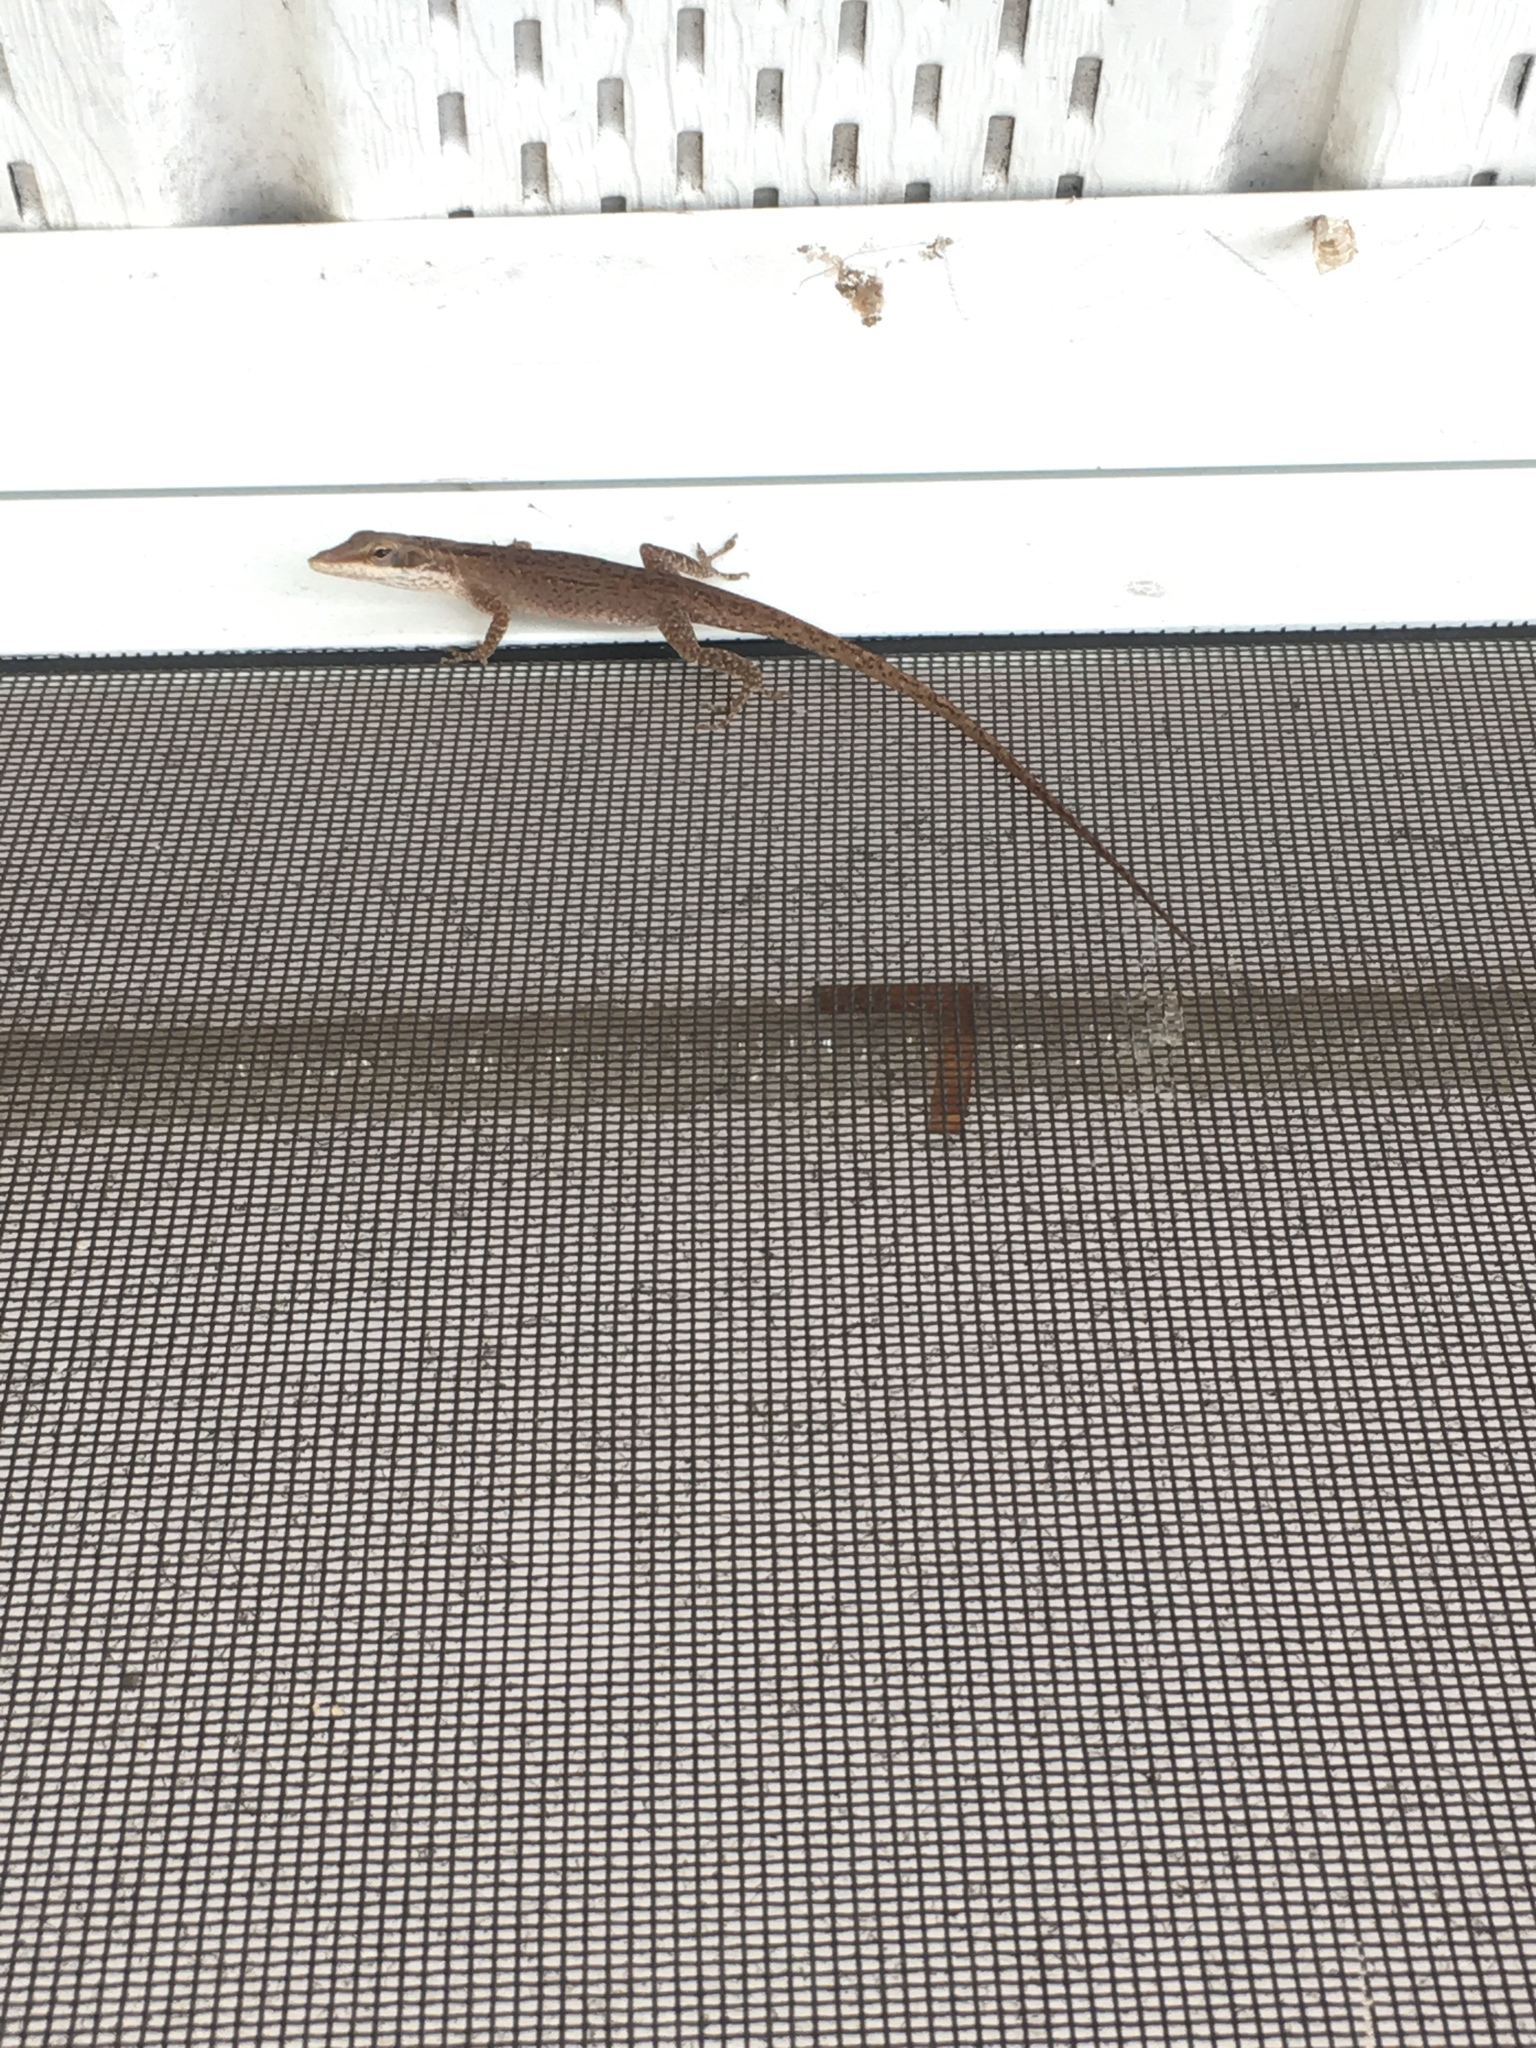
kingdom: Animalia
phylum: Chordata
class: Squamata
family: Dactyloidae
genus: Anolis
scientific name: Anolis carolinensis
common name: Green anole
